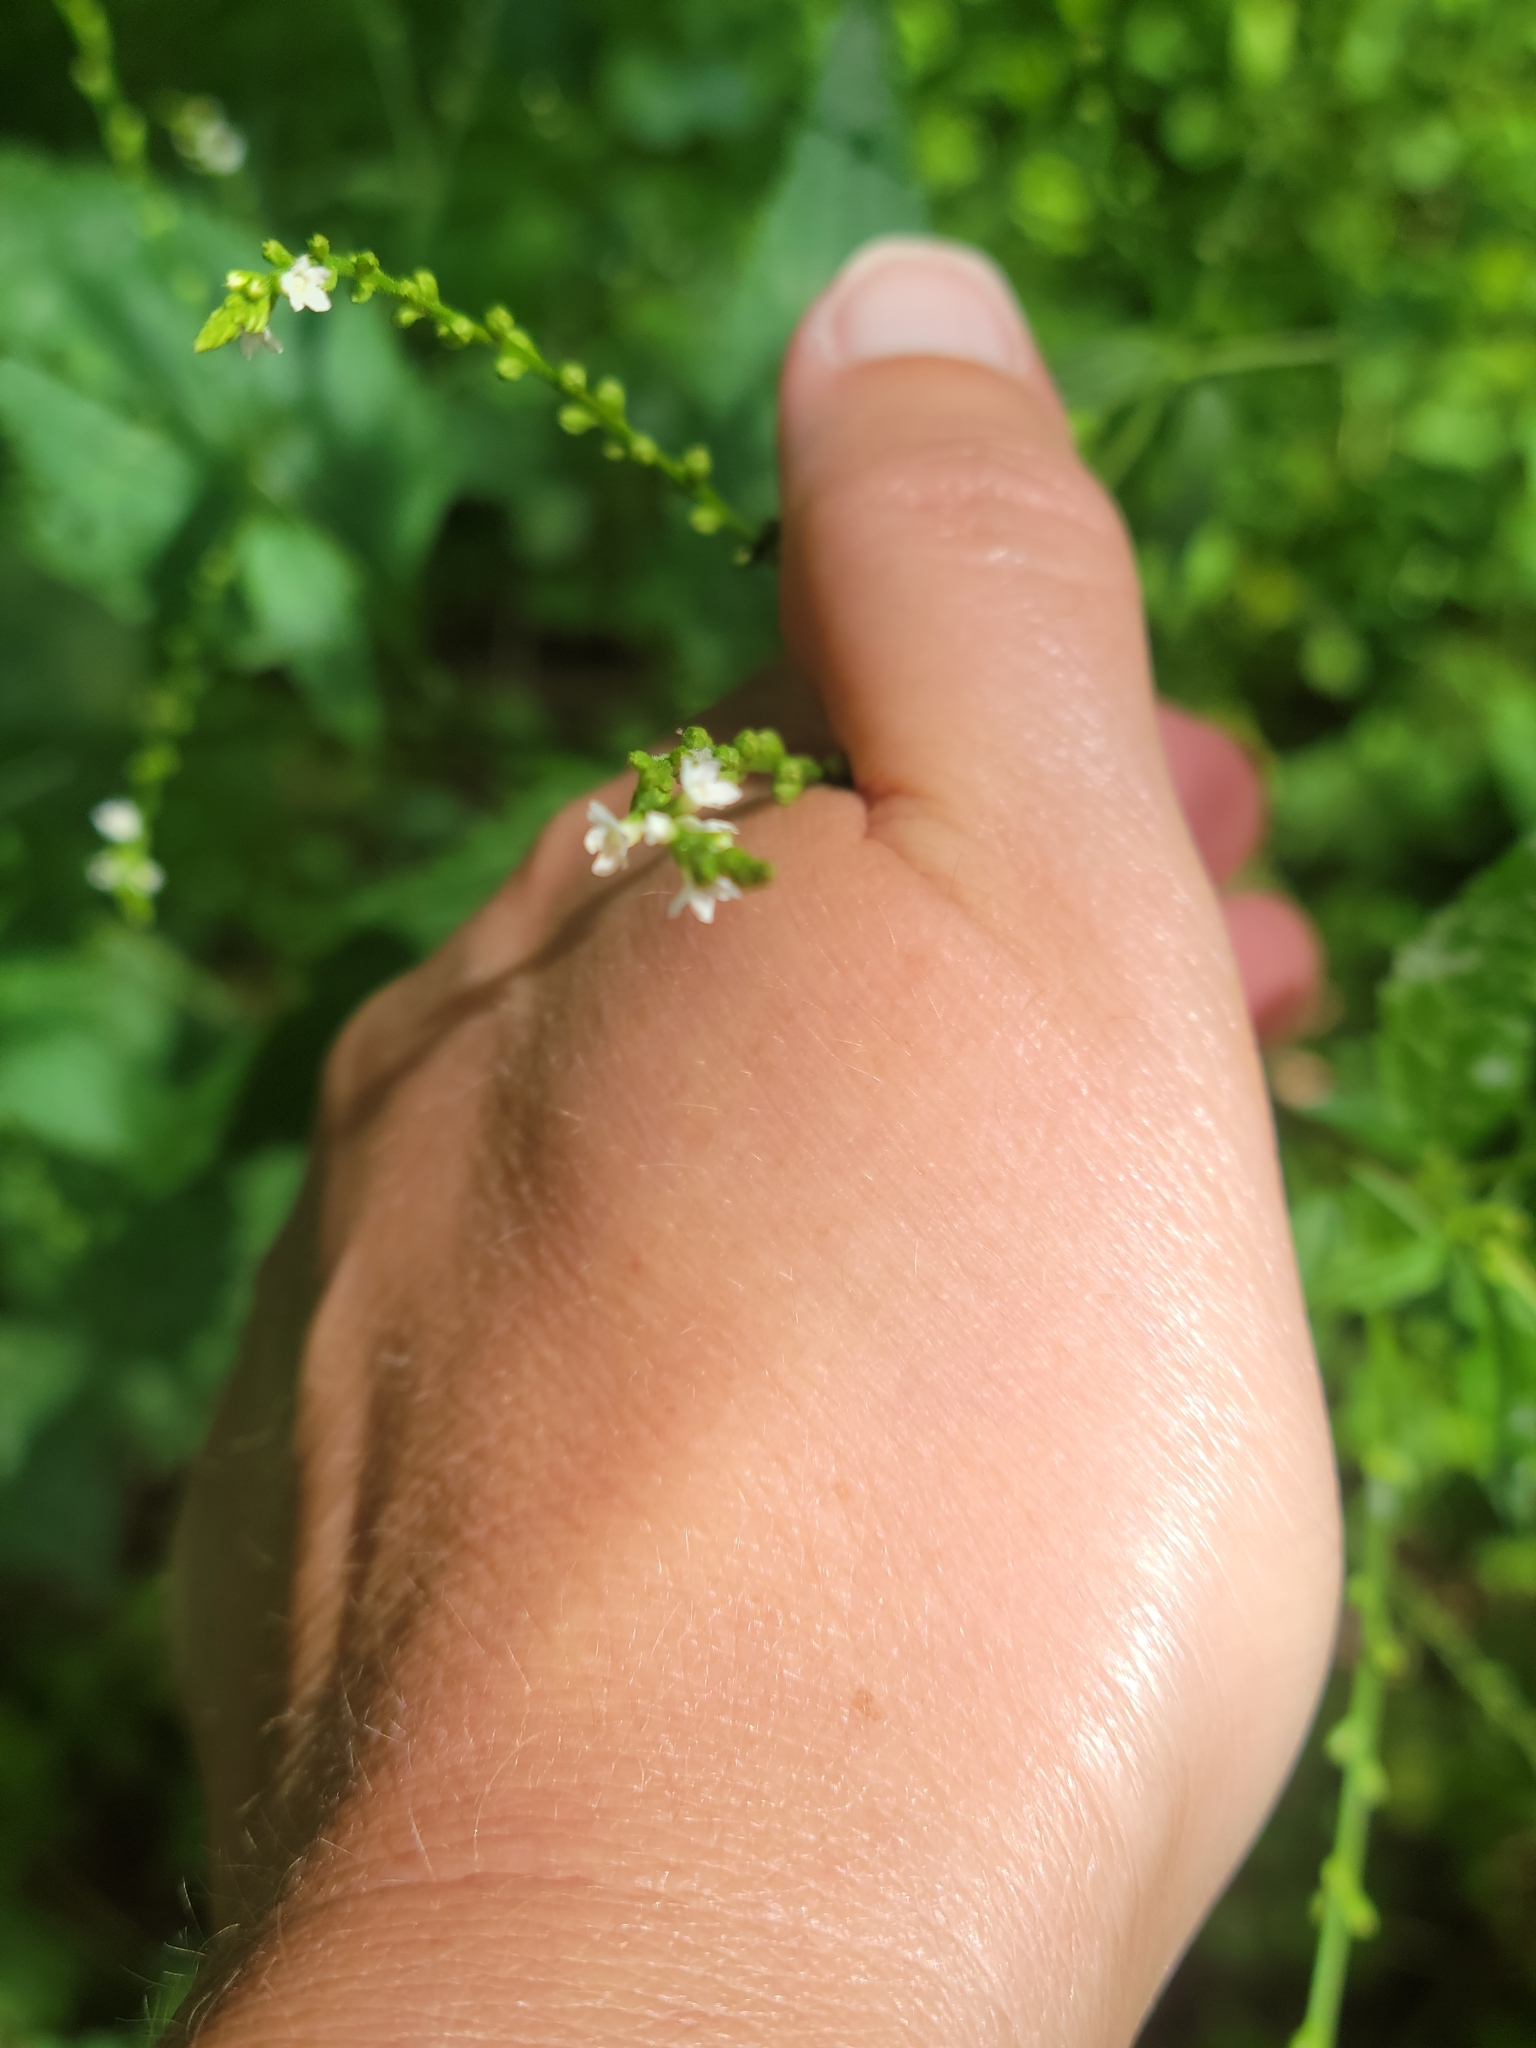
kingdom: Plantae
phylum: Tracheophyta
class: Magnoliopsida
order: Lamiales
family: Verbenaceae
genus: Verbena
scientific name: Verbena urticifolia
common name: Nettle-leaved vervain
